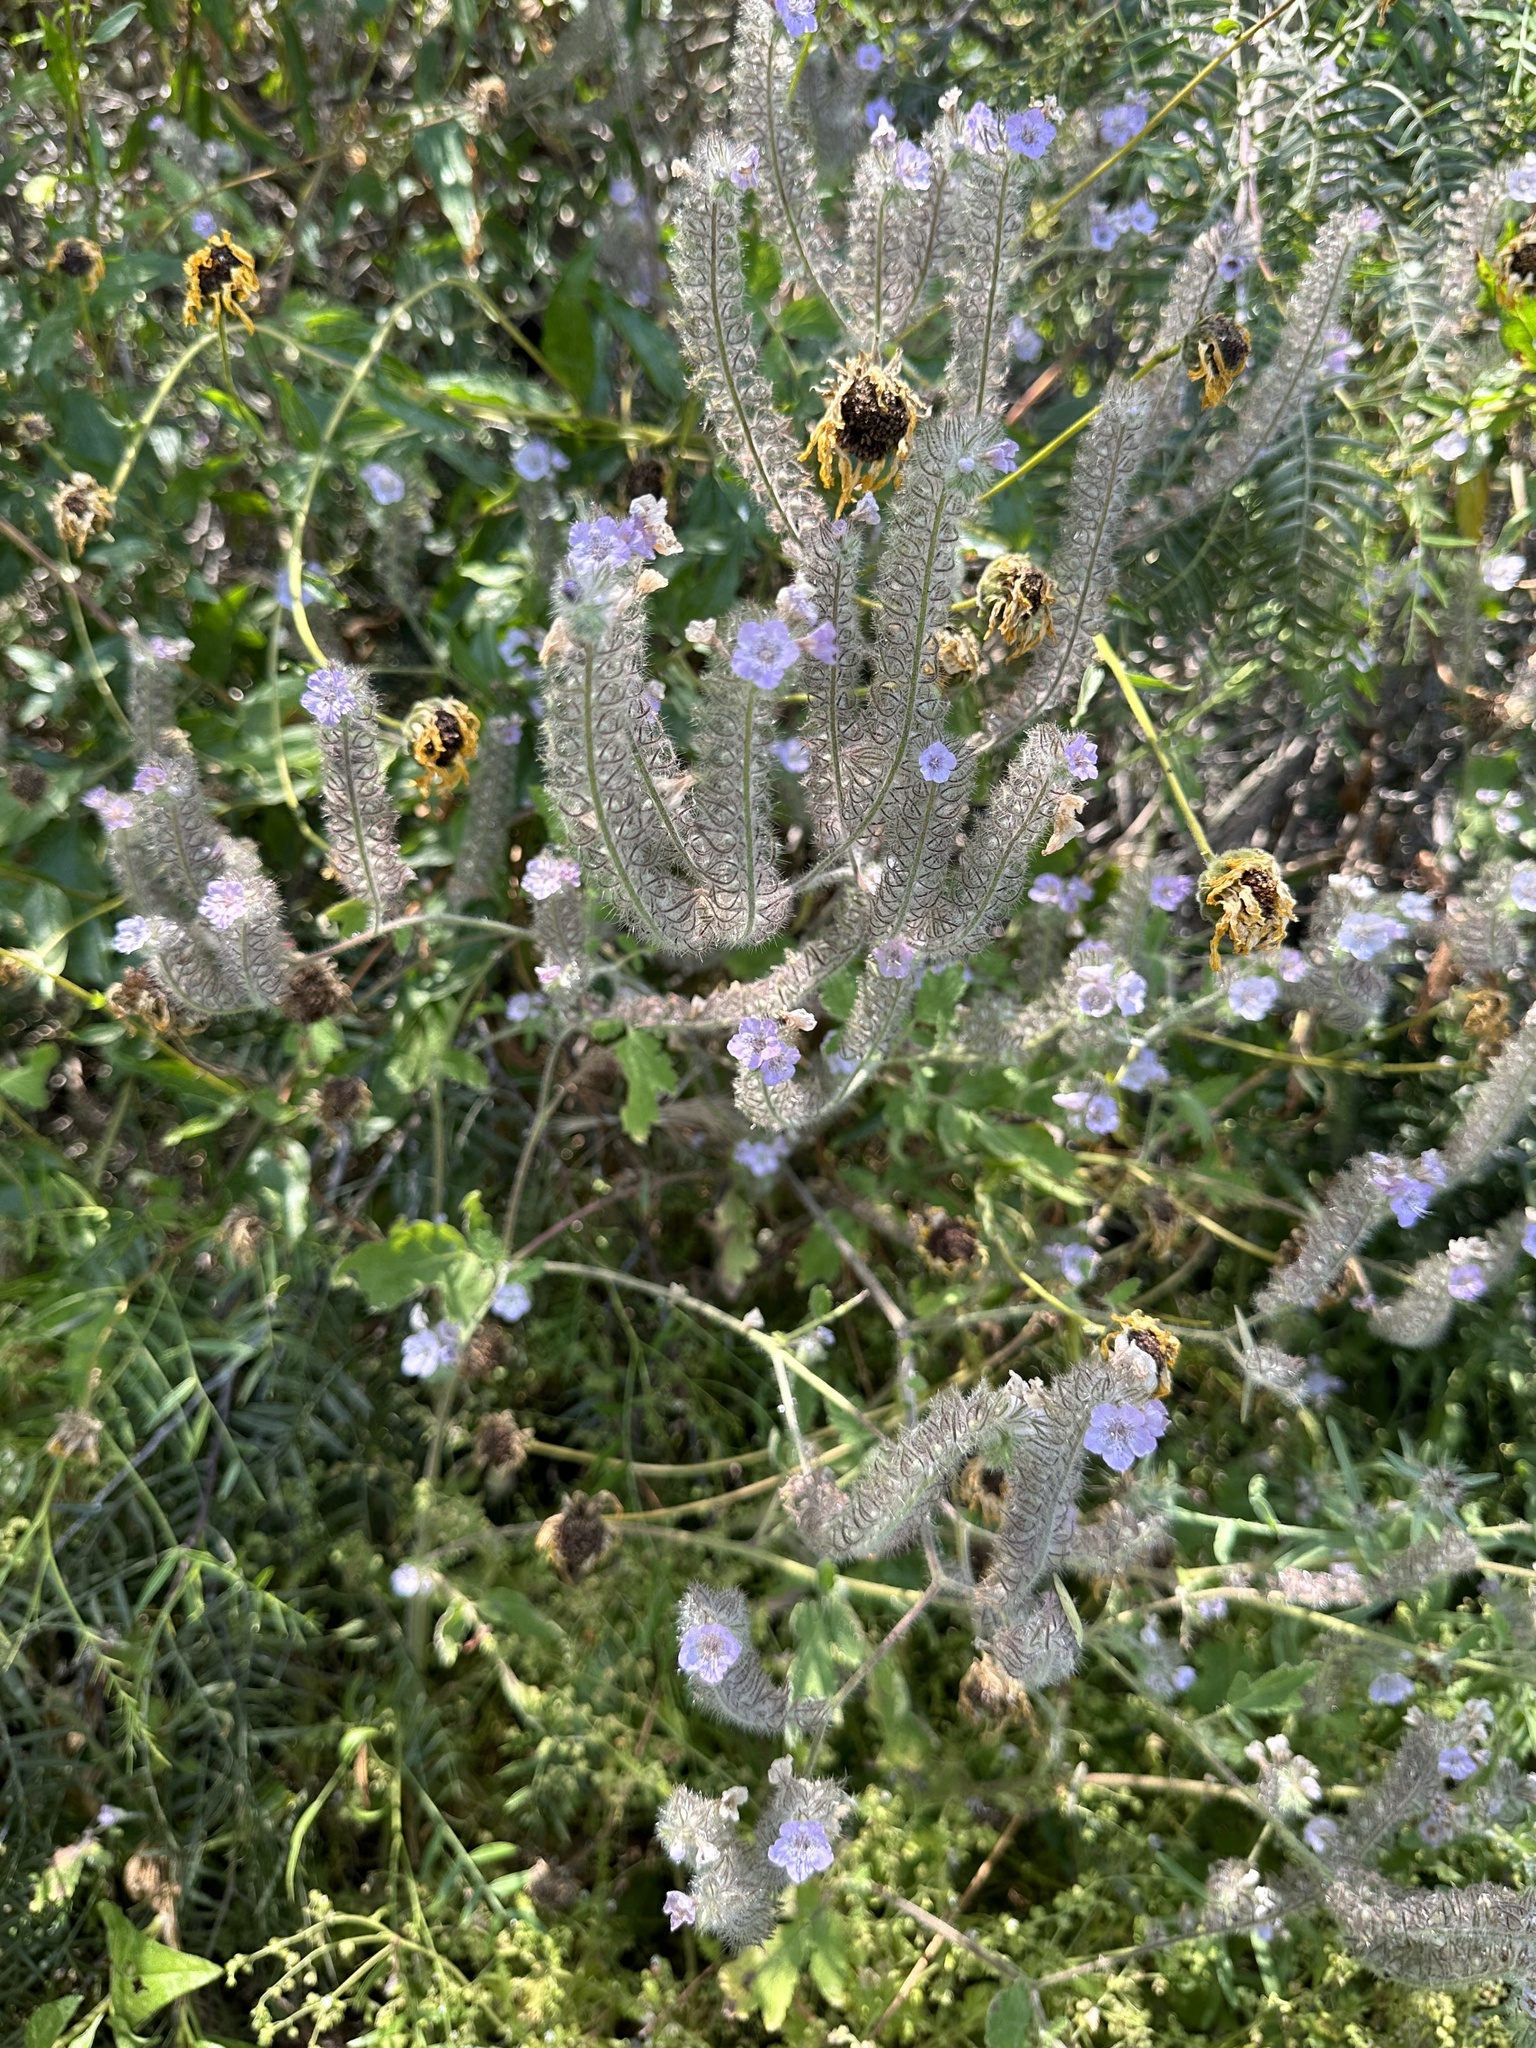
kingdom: Plantae
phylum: Tracheophyta
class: Magnoliopsida
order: Boraginales
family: Hydrophyllaceae
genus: Phacelia
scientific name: Phacelia cicutaria
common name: Caterpillar phacelia
